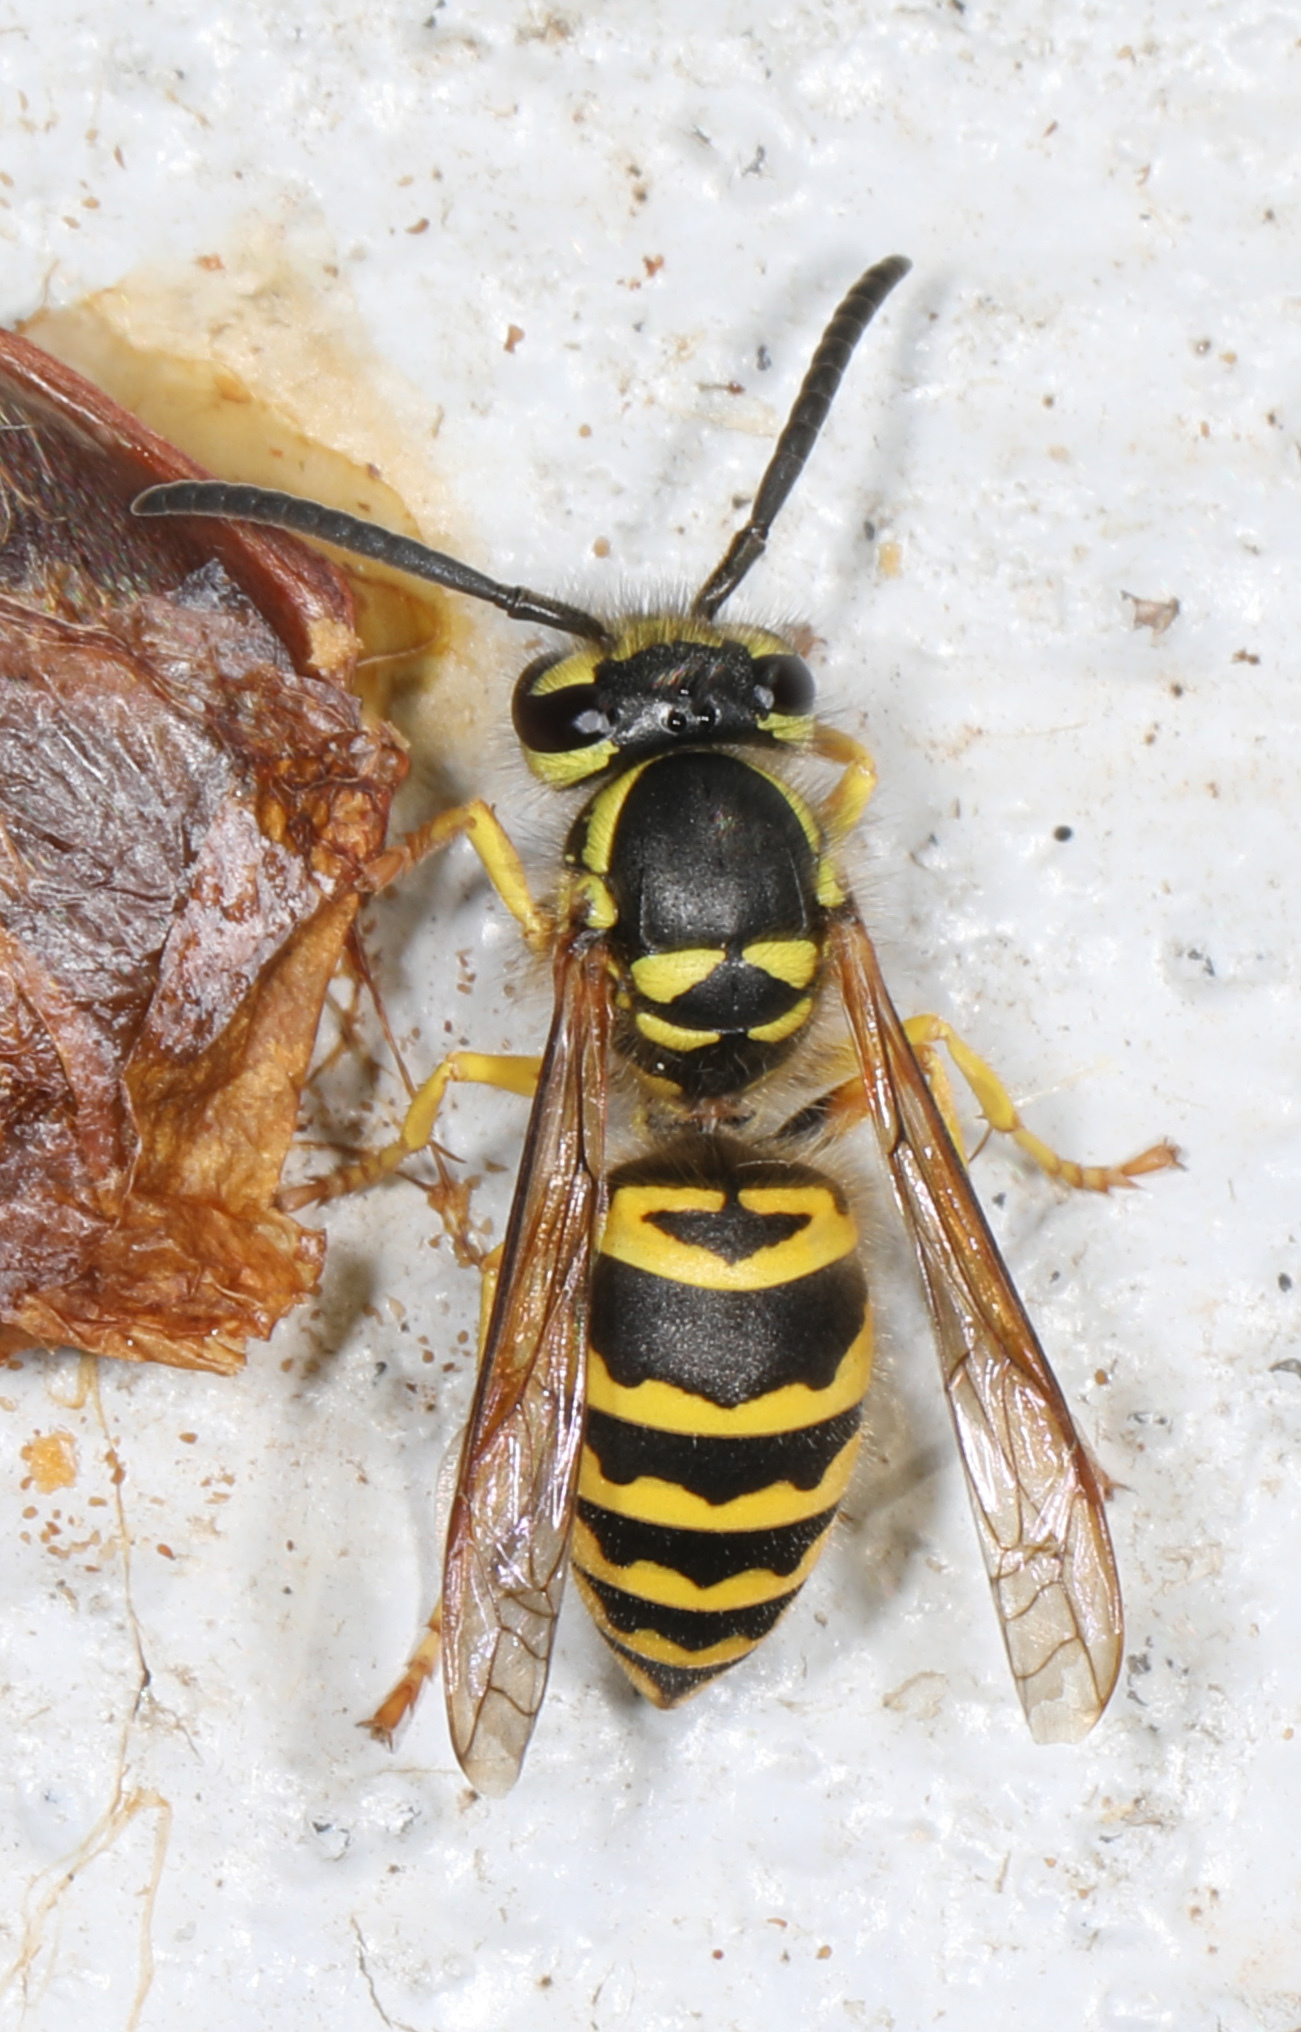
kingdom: Animalia
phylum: Arthropoda
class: Insecta
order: Hymenoptera
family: Vespidae
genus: Vespula
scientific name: Vespula maculifrons
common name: Eastern yellowjacket
